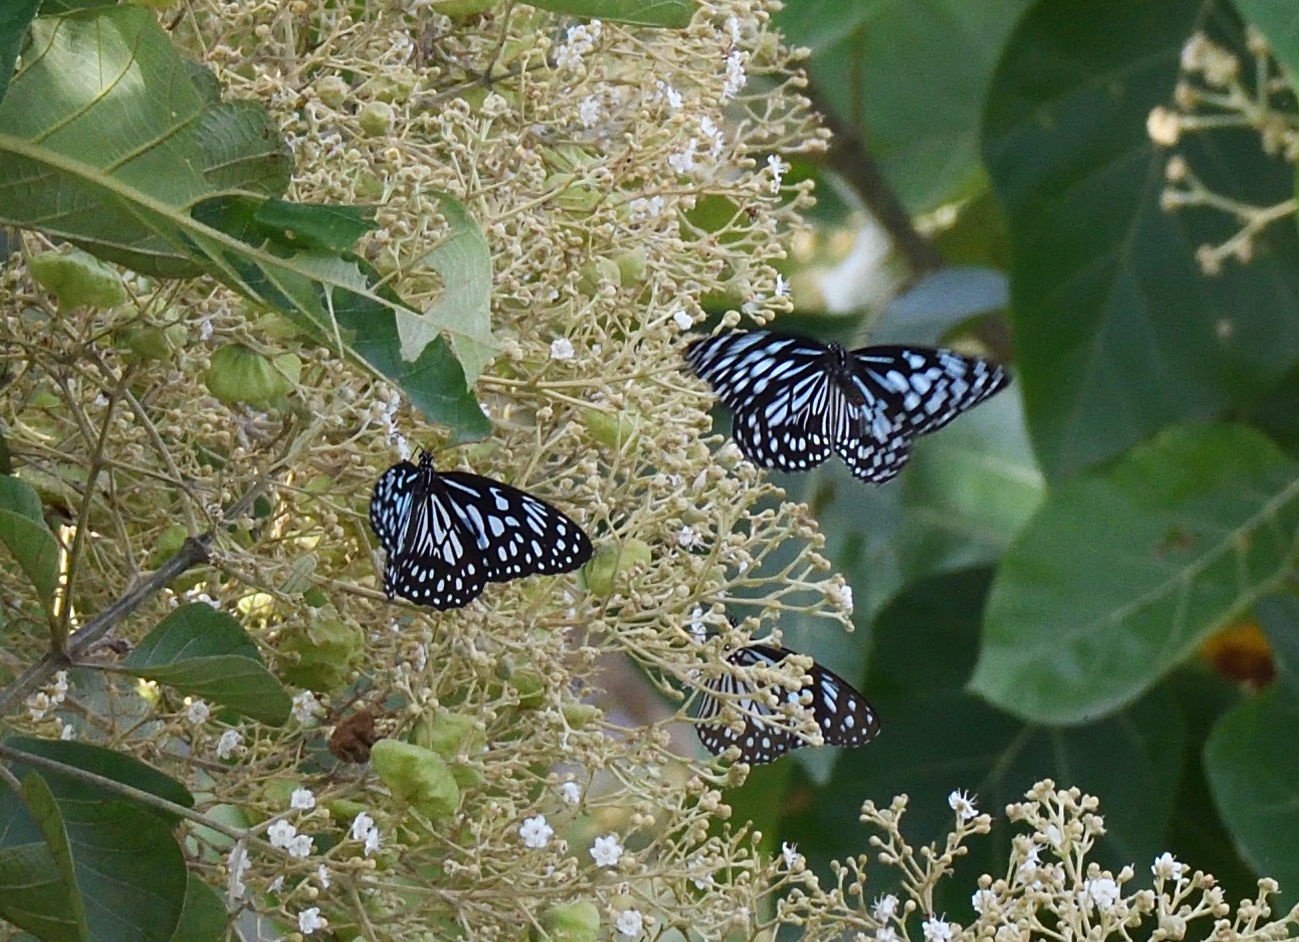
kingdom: Animalia
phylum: Arthropoda
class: Insecta
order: Lepidoptera
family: Nymphalidae
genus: Tirumala
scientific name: Tirumala septentrionis
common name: Dark blue tiger butterfly
